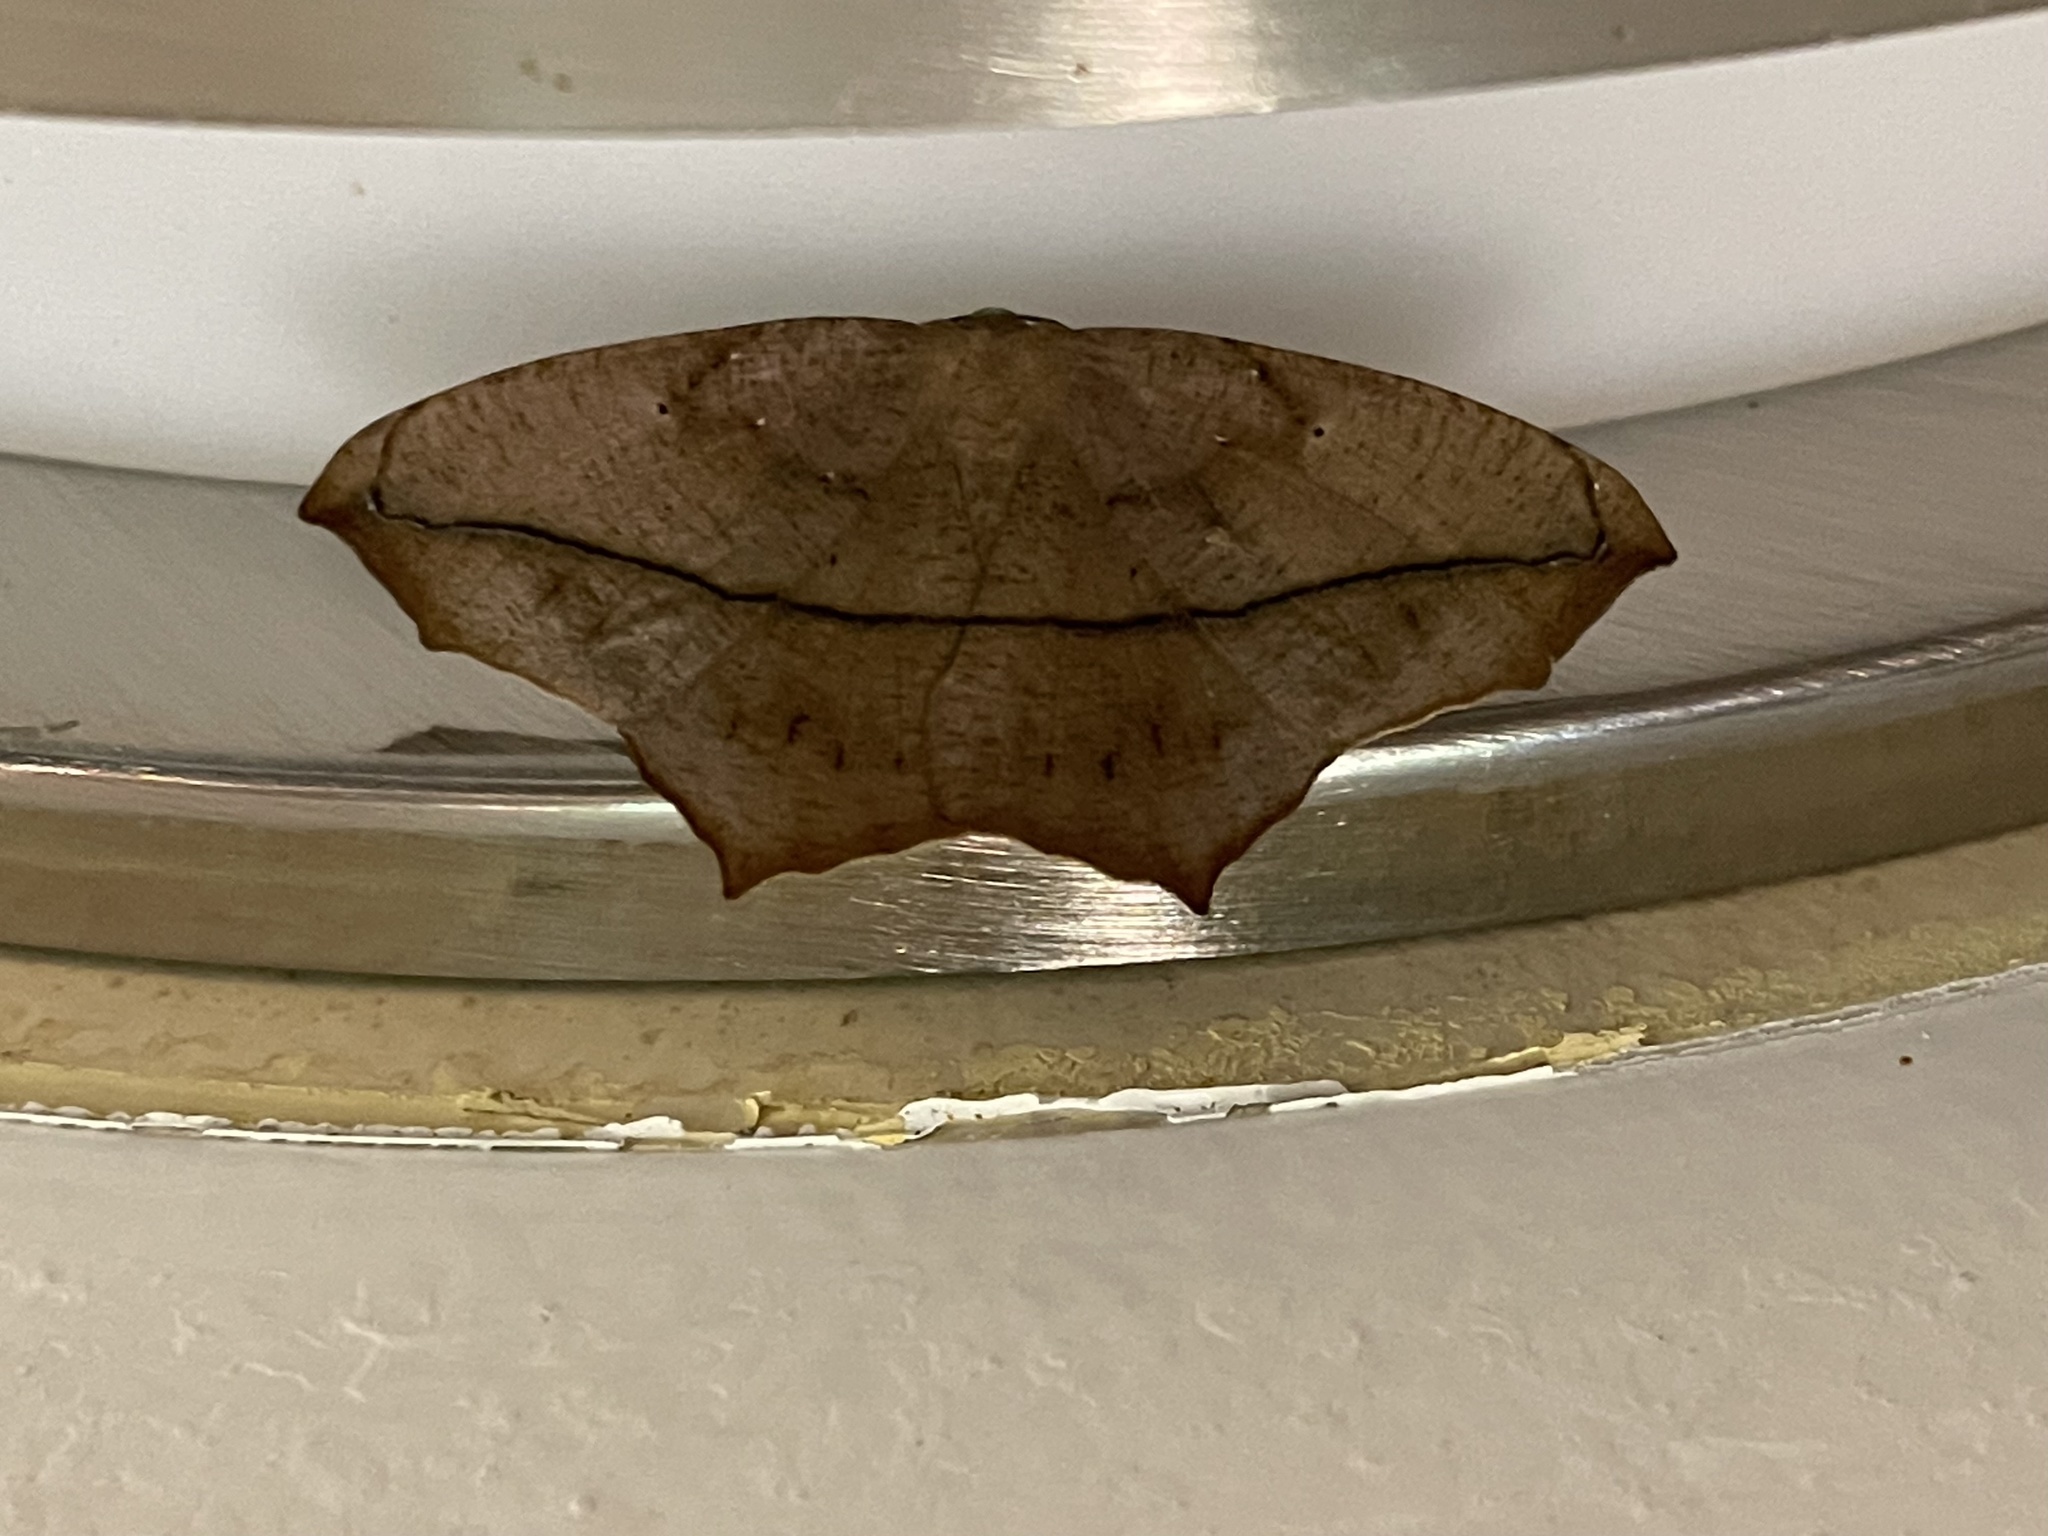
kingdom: Animalia
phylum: Arthropoda
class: Insecta
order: Lepidoptera
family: Geometridae
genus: Prochoerodes
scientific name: Prochoerodes lineola
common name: Large maple spanworm
